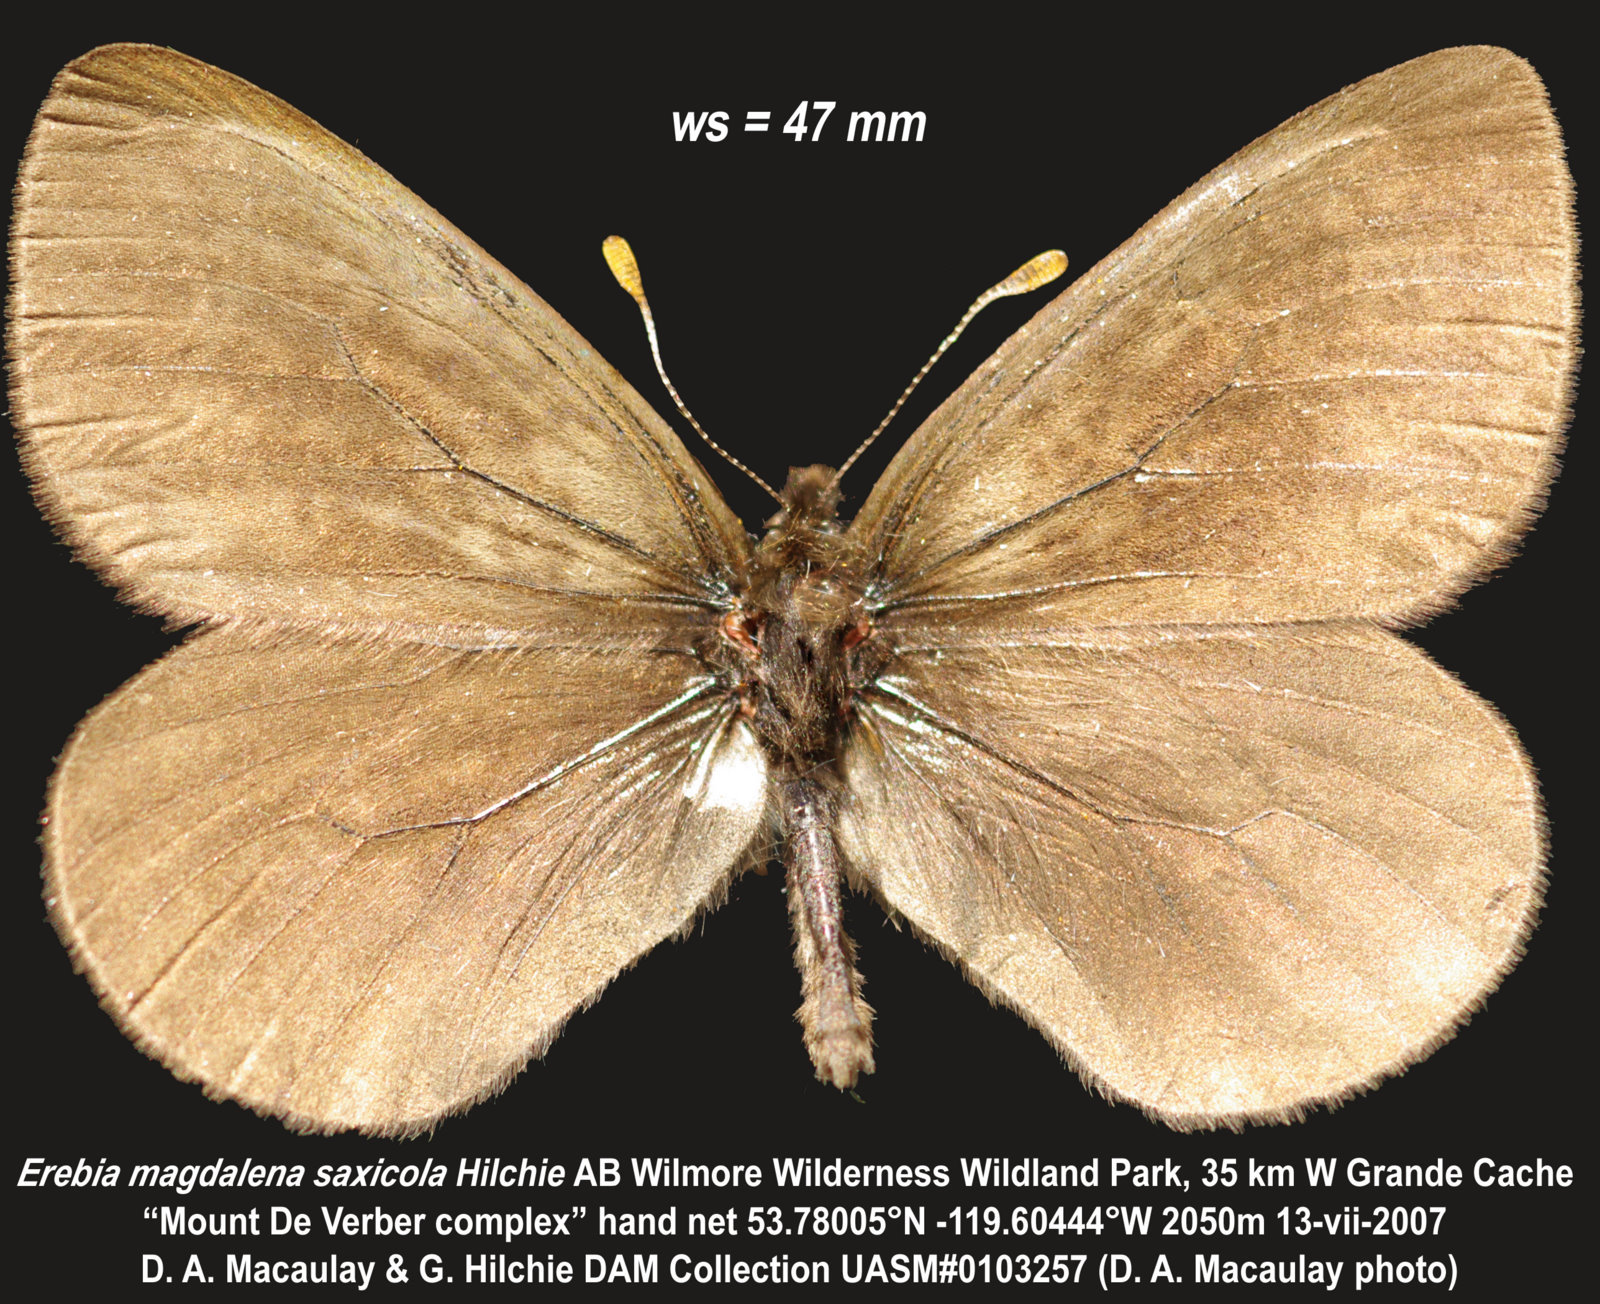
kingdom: Animalia
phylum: Arthropoda
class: Insecta
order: Lepidoptera
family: Nymphalidae
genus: Erebia
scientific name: Erebia magdalena
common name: Magdalena alpine
